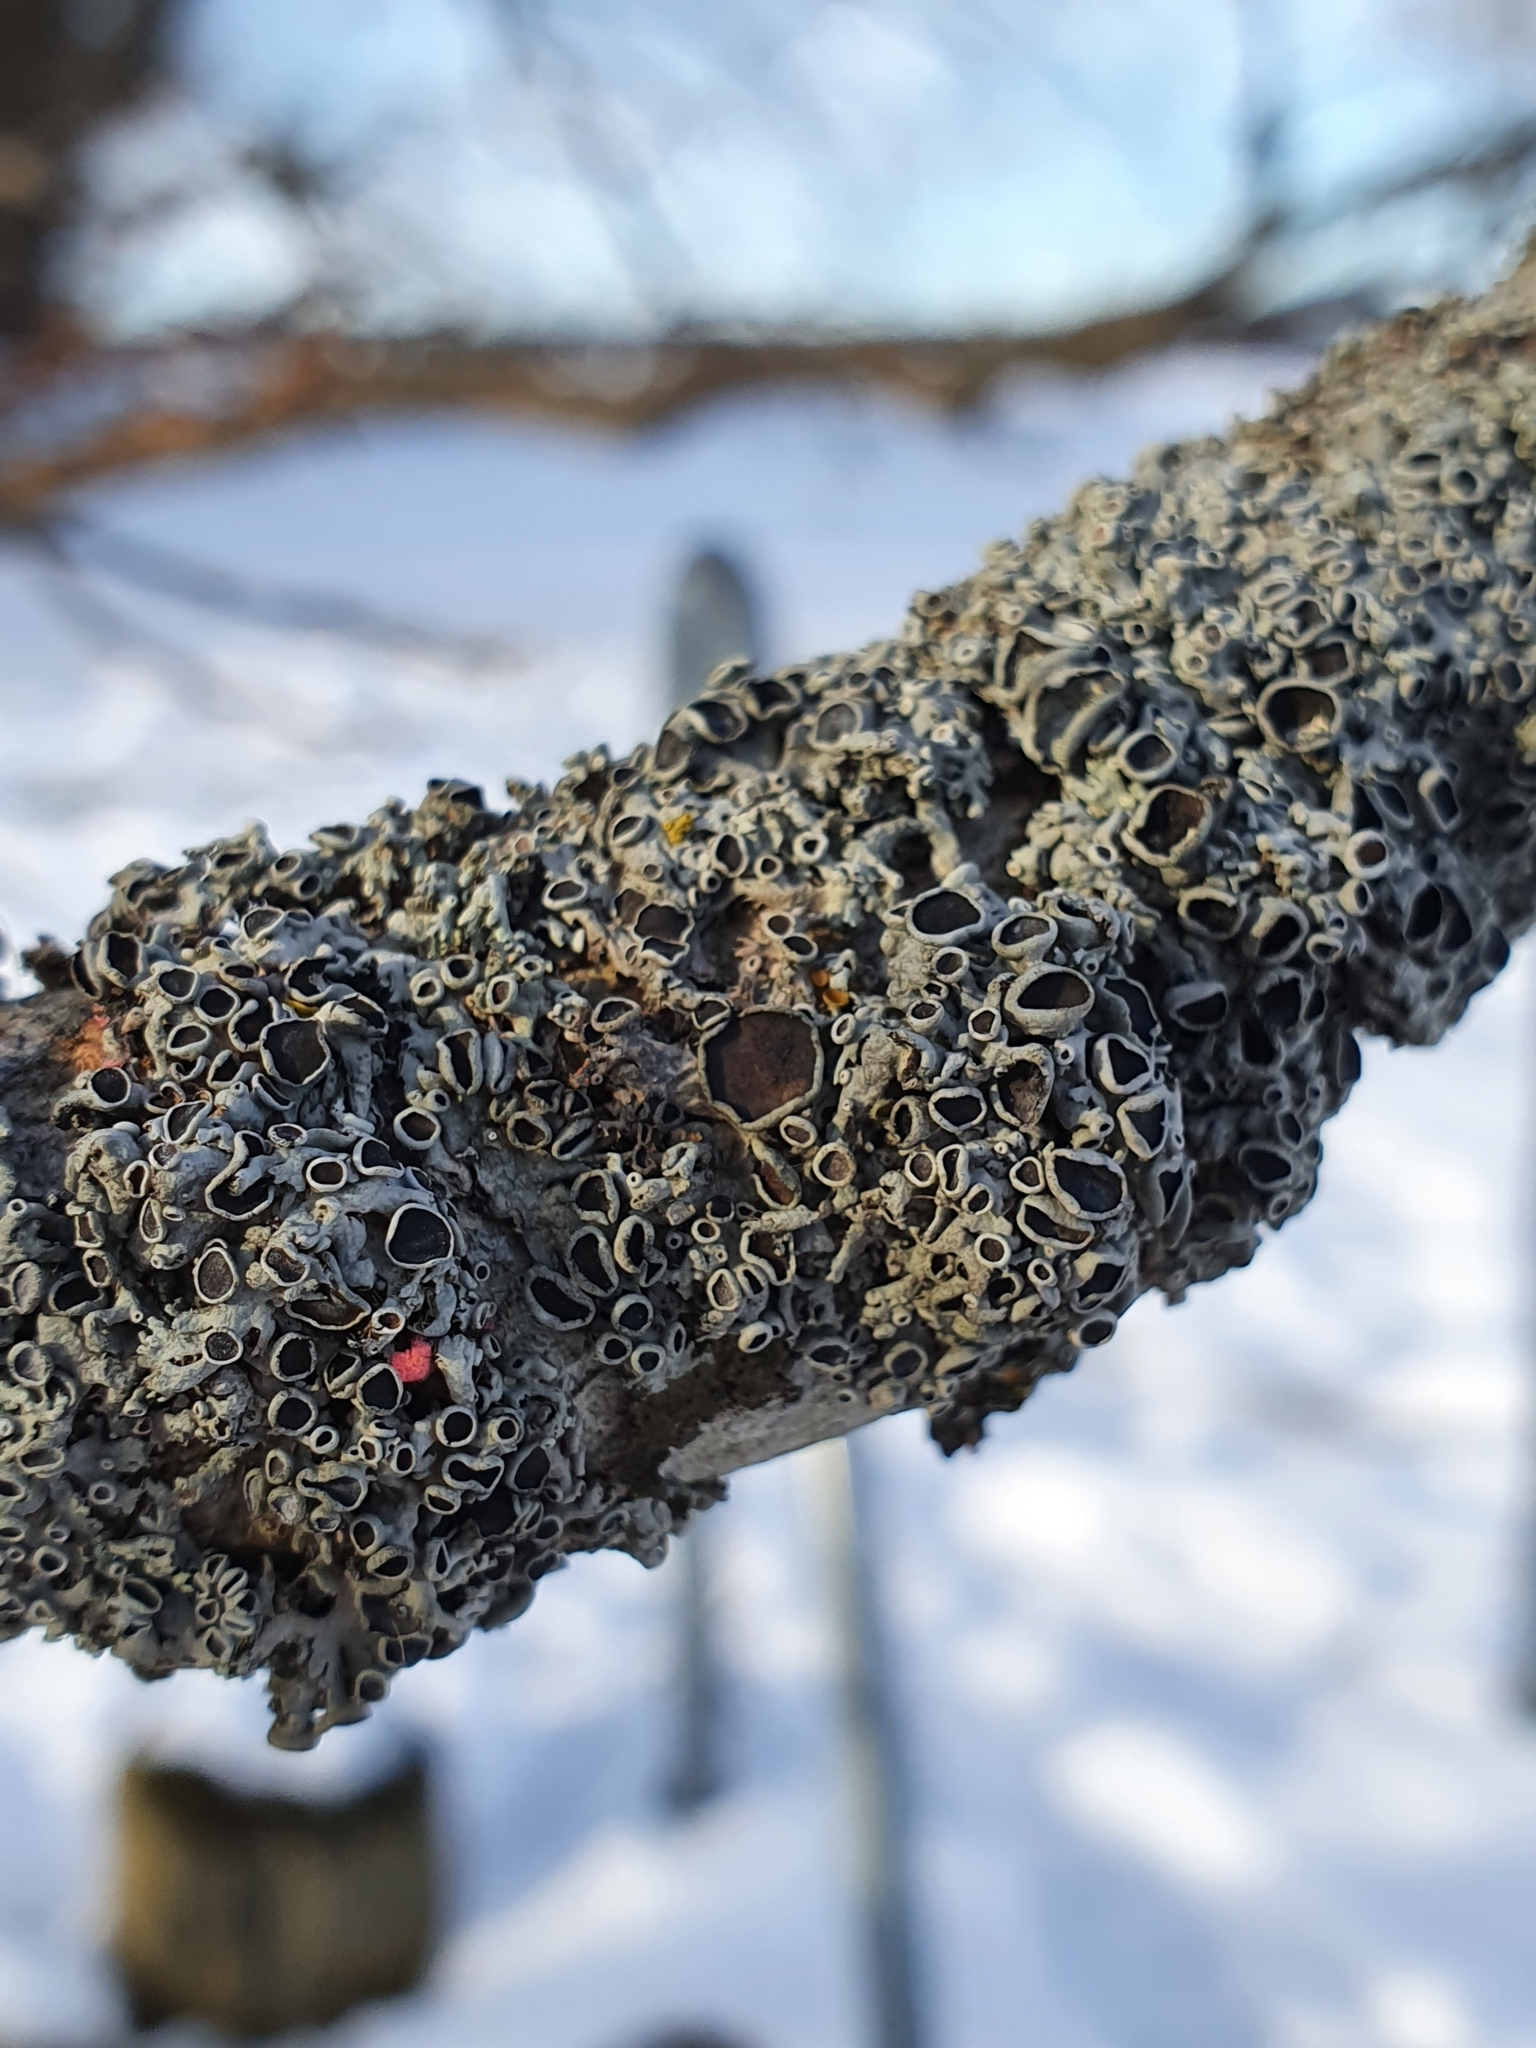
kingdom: Fungi
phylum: Ascomycota
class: Lecanoromycetes
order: Caliciales
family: Physciaceae
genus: Physcia
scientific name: Physcia aipolia
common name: Hoary rosette lichen
